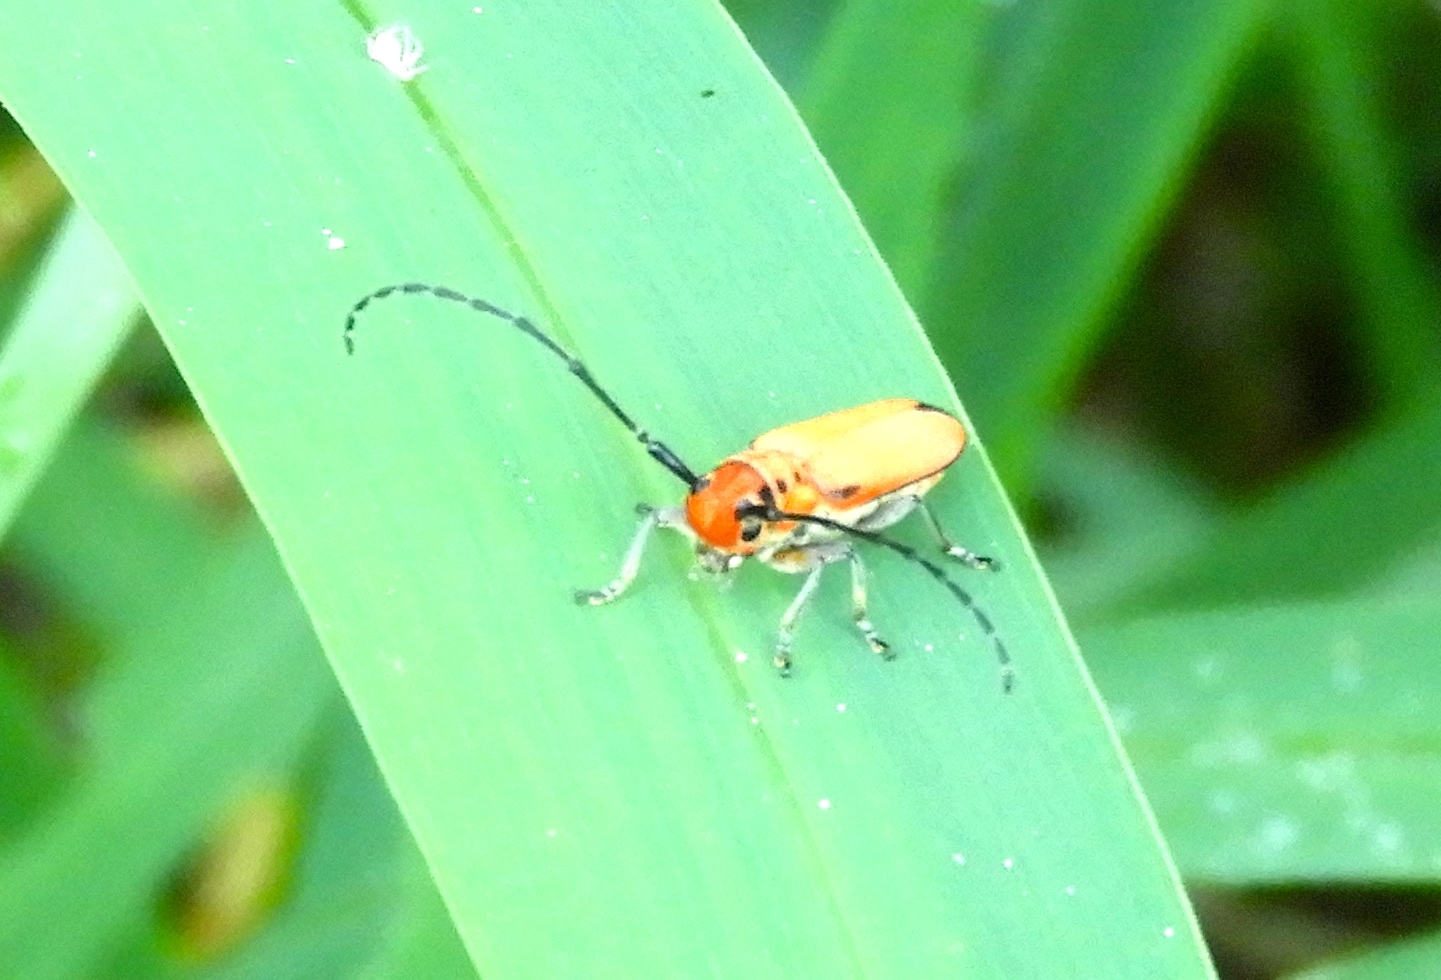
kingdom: Animalia
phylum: Arthropoda
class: Insecta
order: Coleoptera
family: Cerambycidae
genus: Essostrutha
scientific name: Essostrutha laeta
